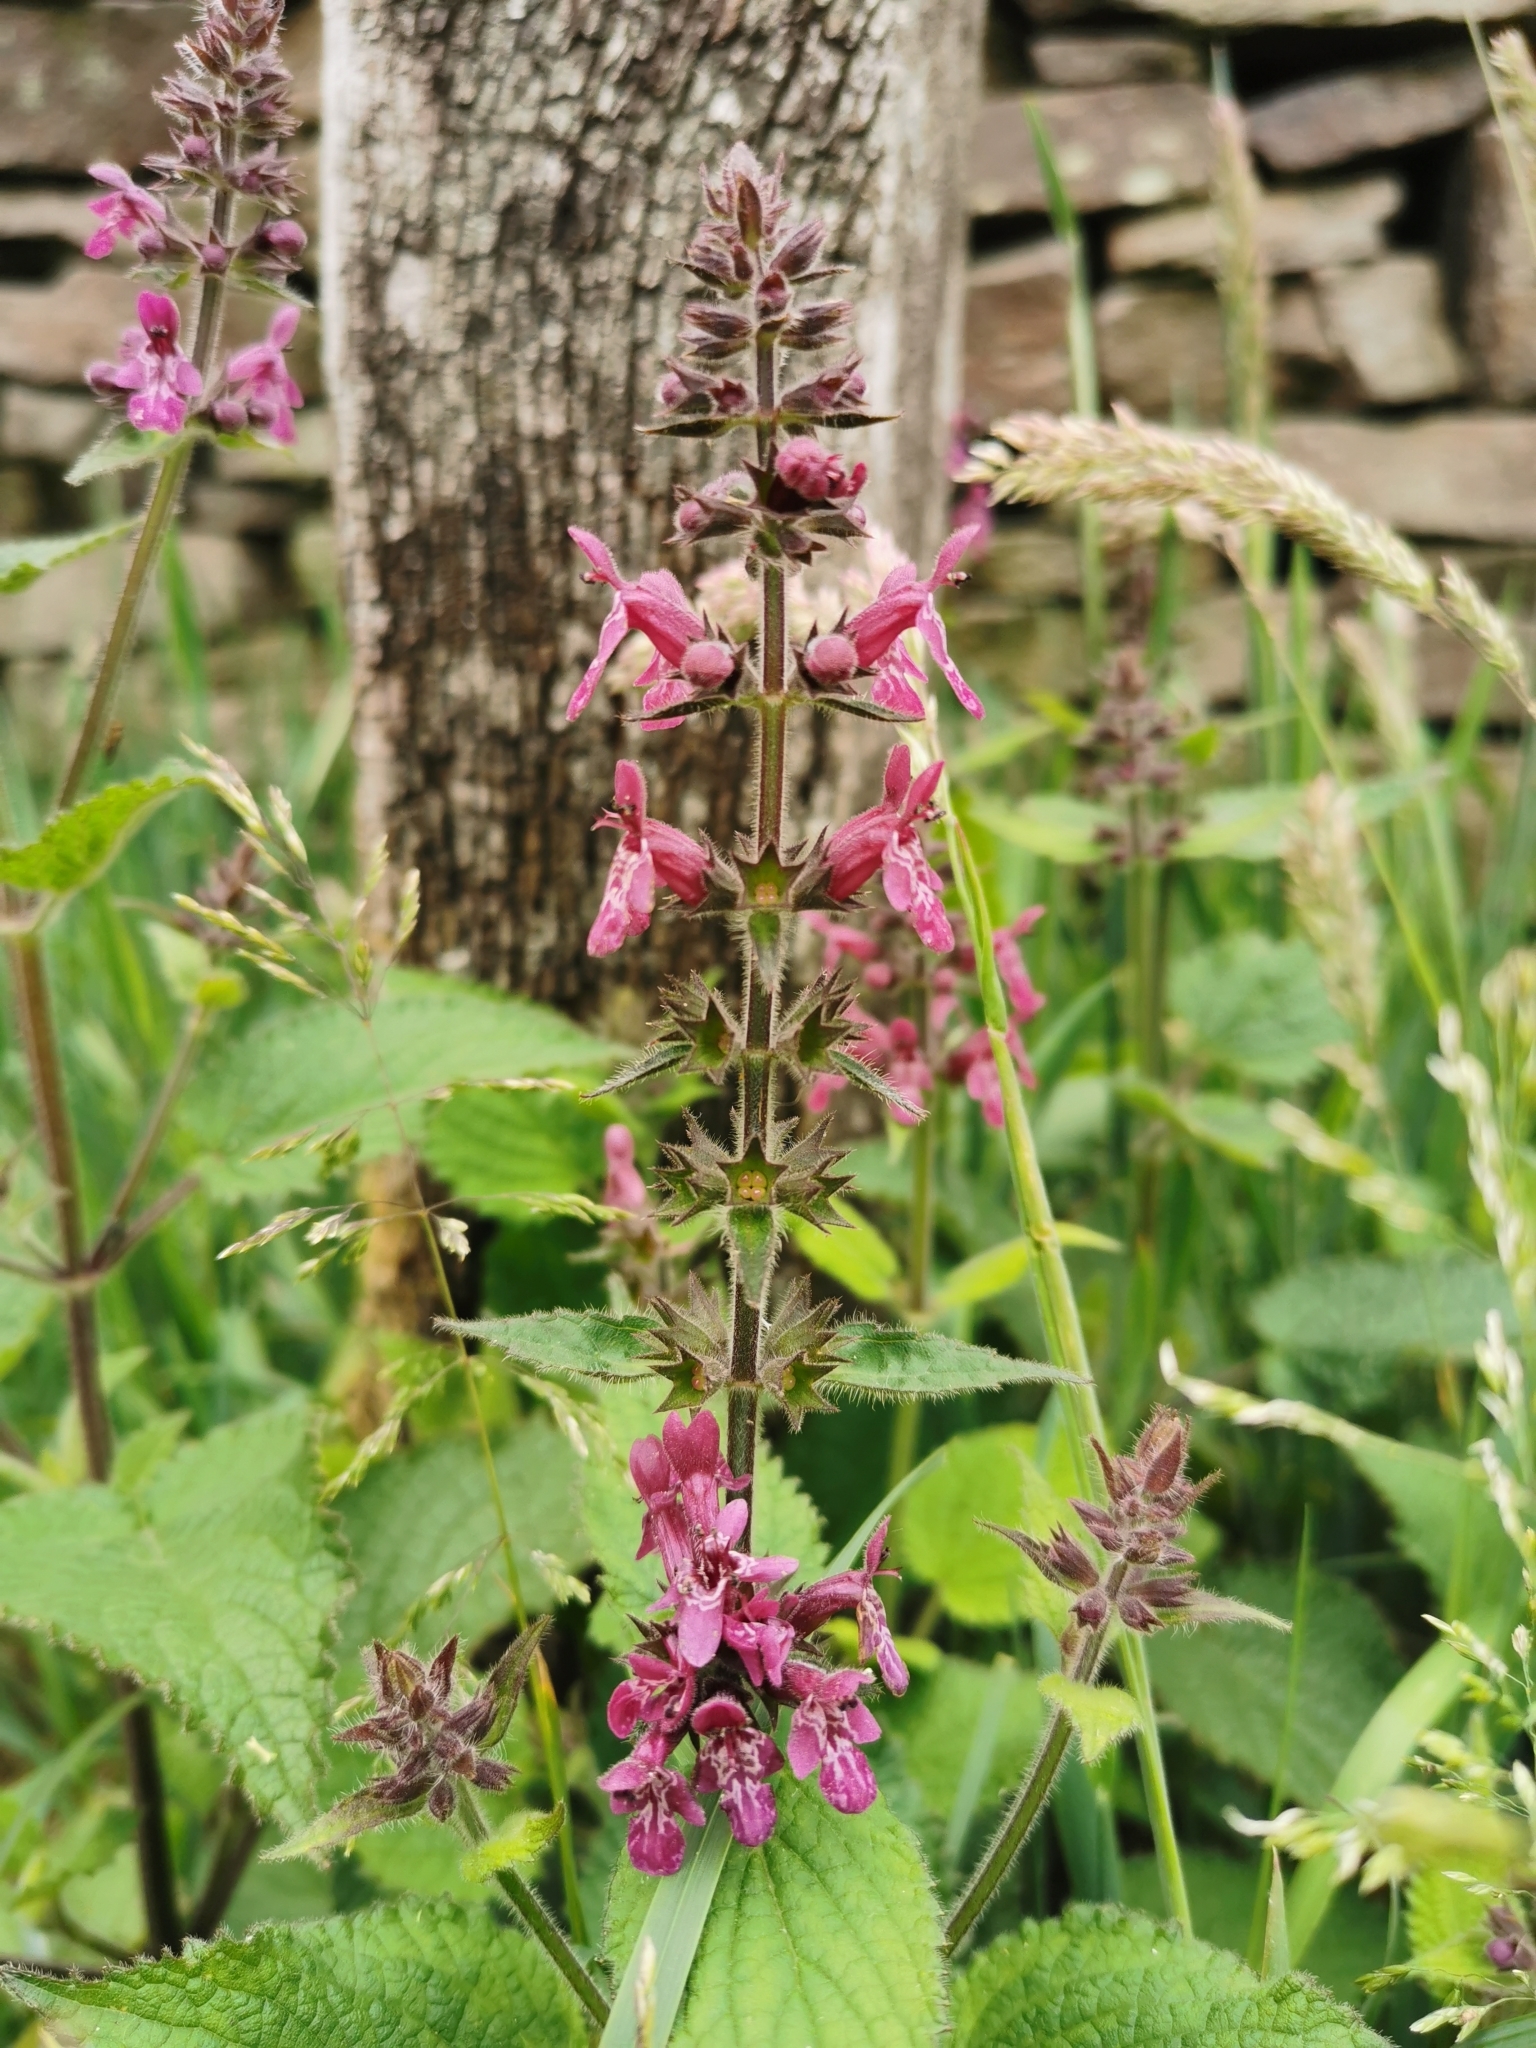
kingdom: Plantae
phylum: Tracheophyta
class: Magnoliopsida
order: Lamiales
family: Lamiaceae
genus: Stachys
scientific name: Stachys sylvatica
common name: Hedge woundwort
